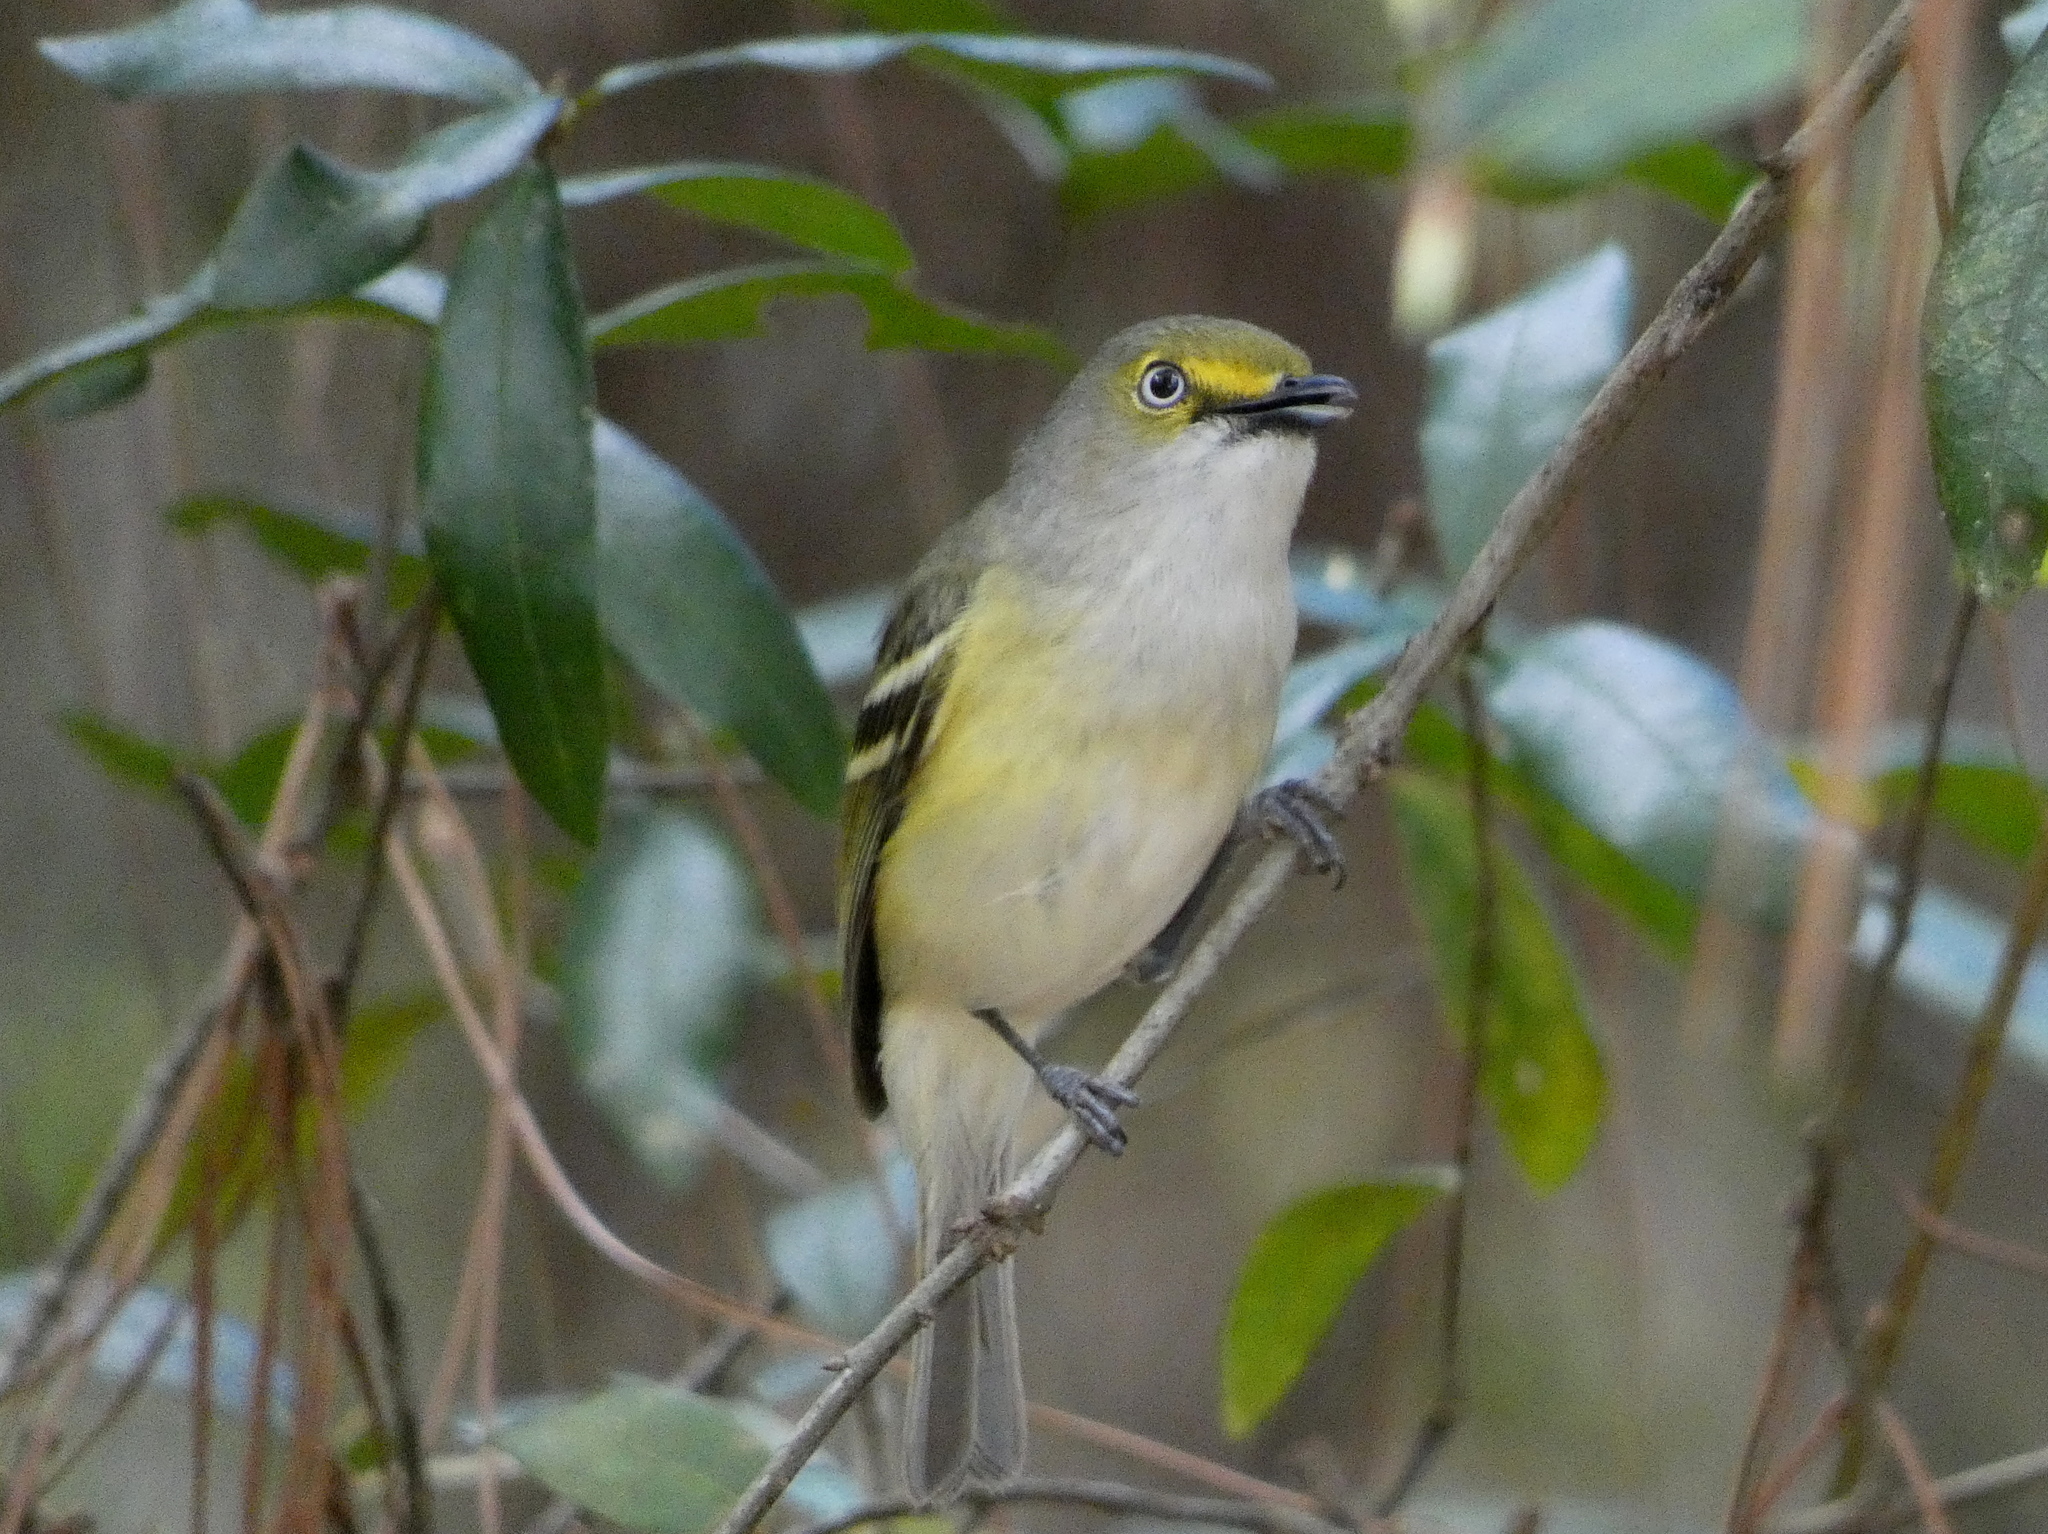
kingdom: Animalia
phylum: Chordata
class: Aves
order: Passeriformes
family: Vireonidae
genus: Vireo
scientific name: Vireo griseus
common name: White-eyed vireo
